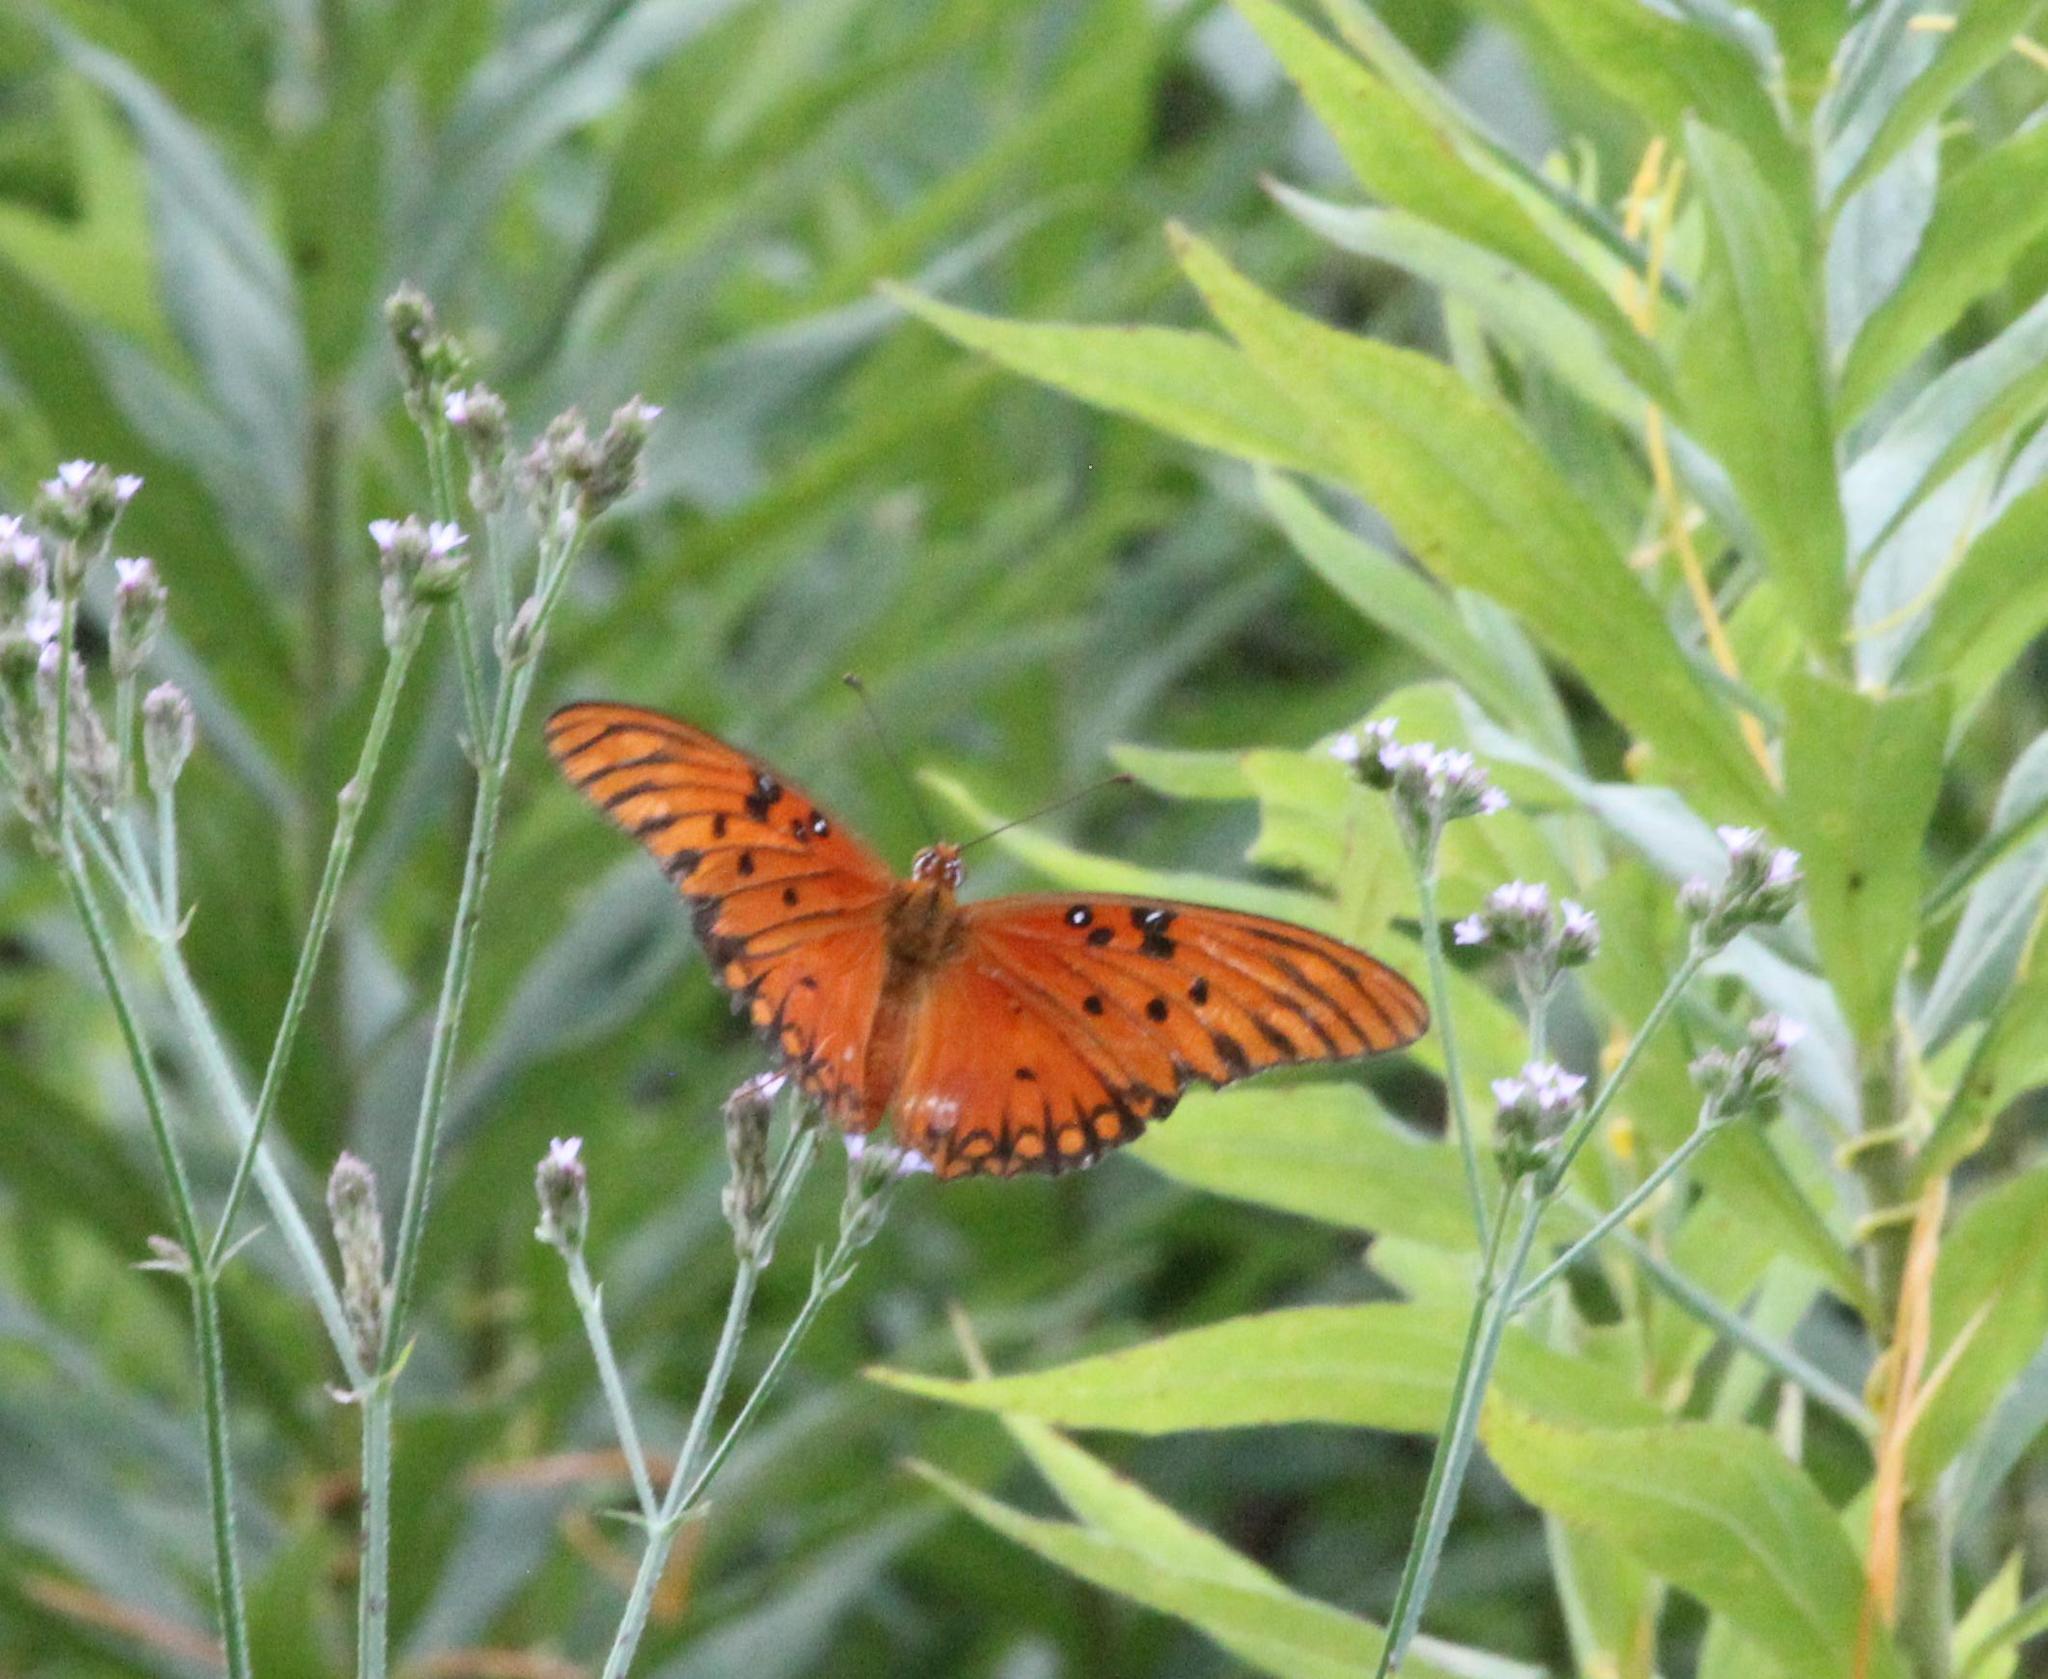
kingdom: Animalia
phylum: Arthropoda
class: Insecta
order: Lepidoptera
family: Nymphalidae
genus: Dione
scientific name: Dione vanillae
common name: Gulf fritillary
